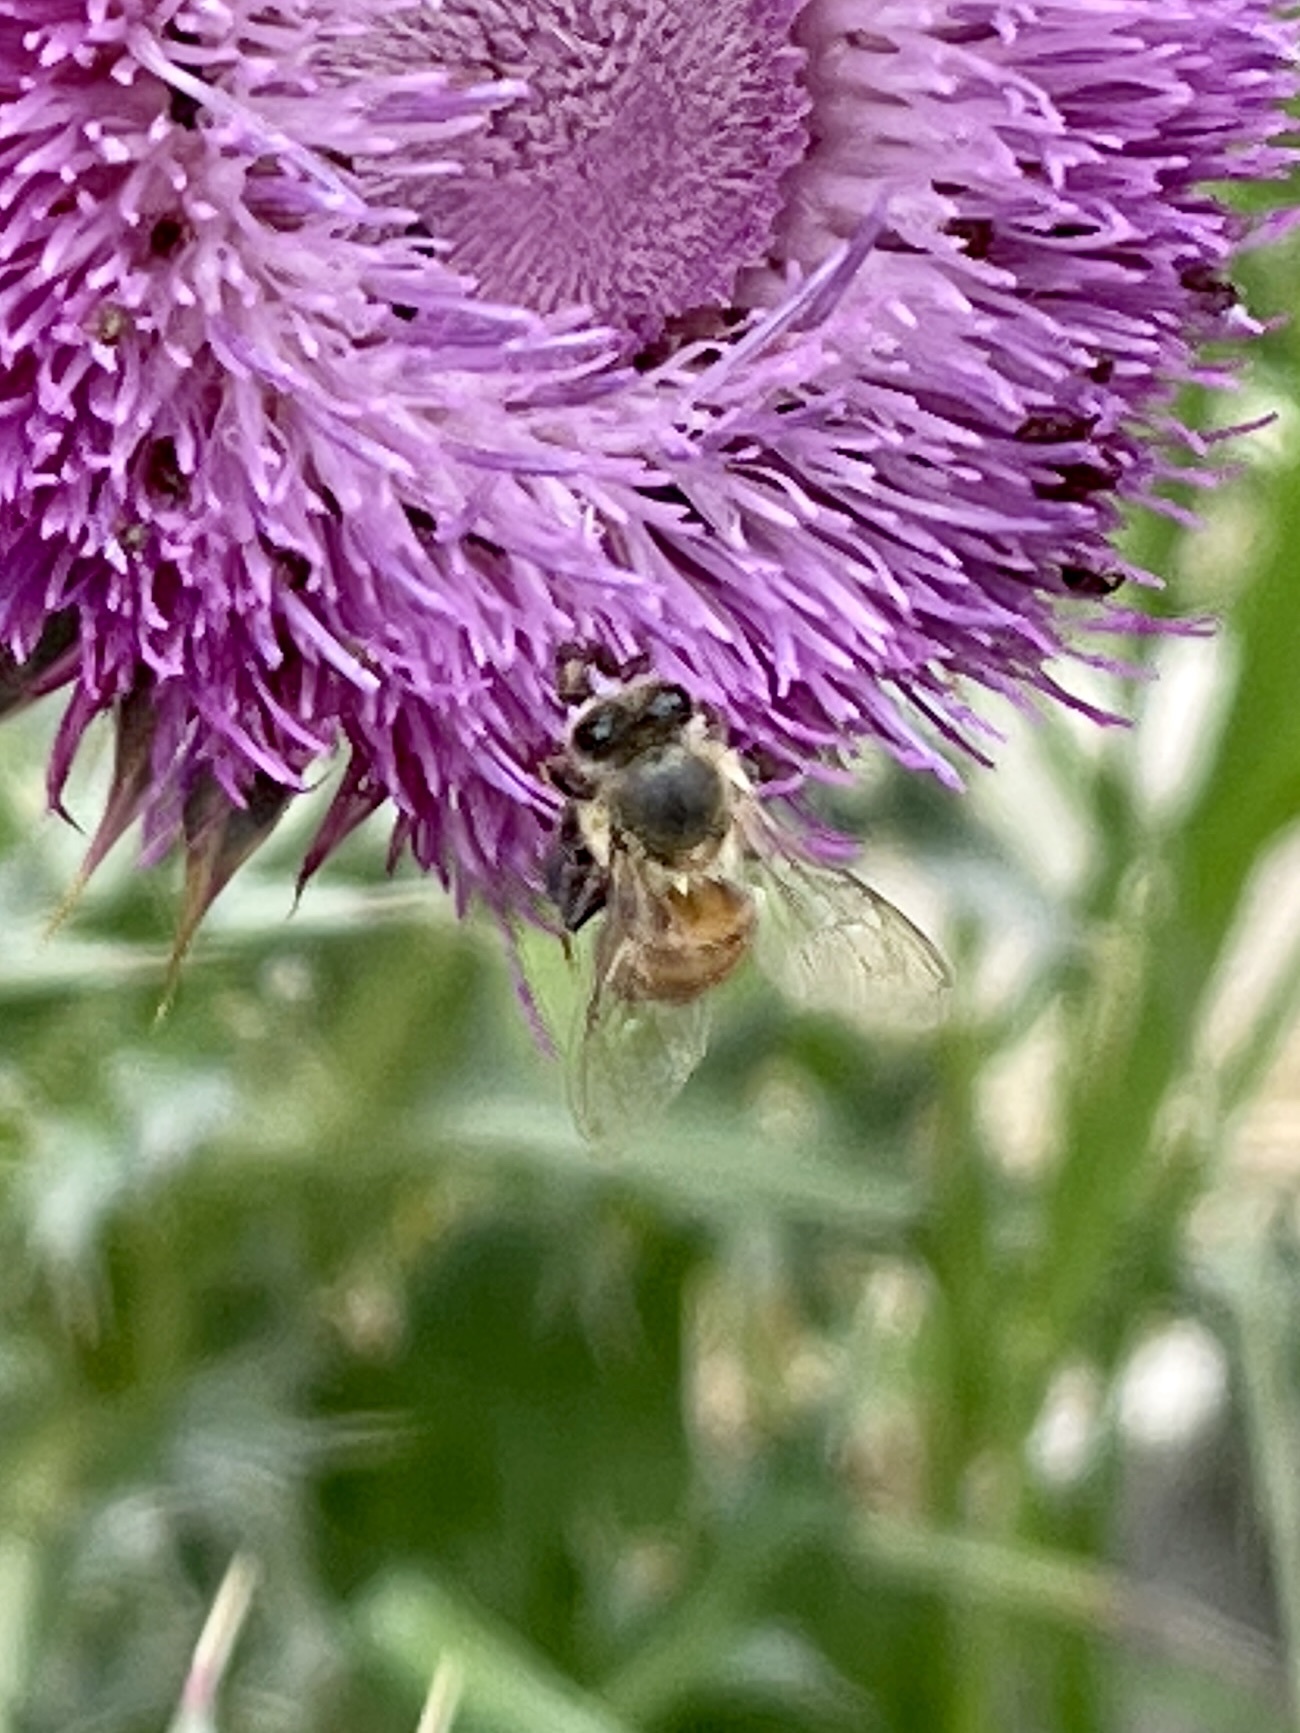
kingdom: Animalia
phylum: Arthropoda
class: Insecta
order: Hymenoptera
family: Apidae
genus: Apis
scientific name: Apis mellifera
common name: Honey bee
